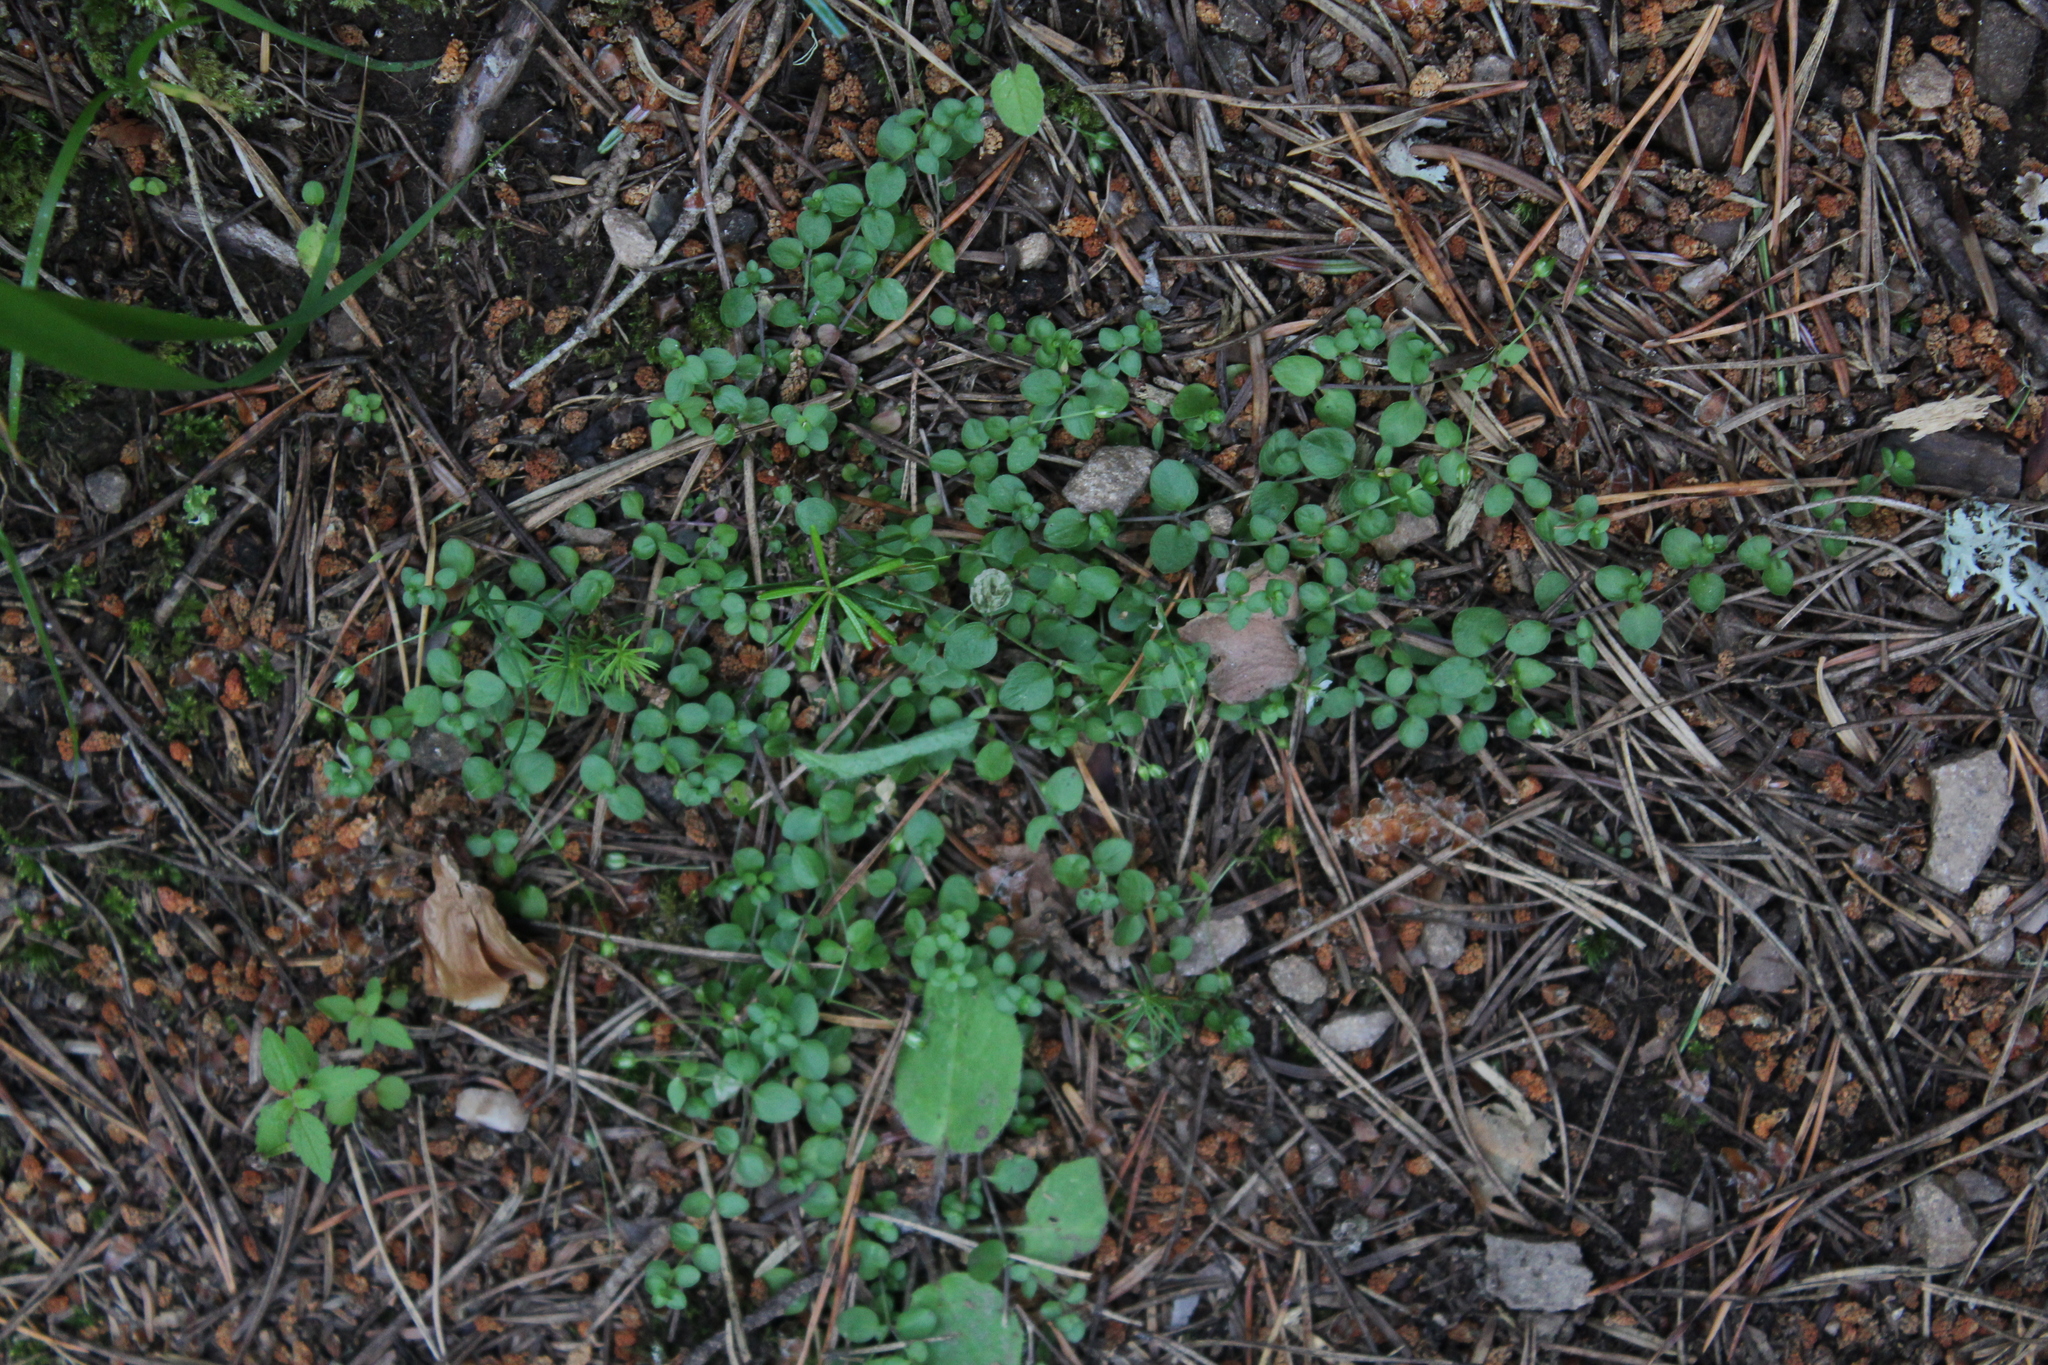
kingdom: Plantae
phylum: Tracheophyta
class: Magnoliopsida
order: Caryophyllales
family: Caryophyllaceae
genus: Arenaria
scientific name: Arenaria rotundifolia
